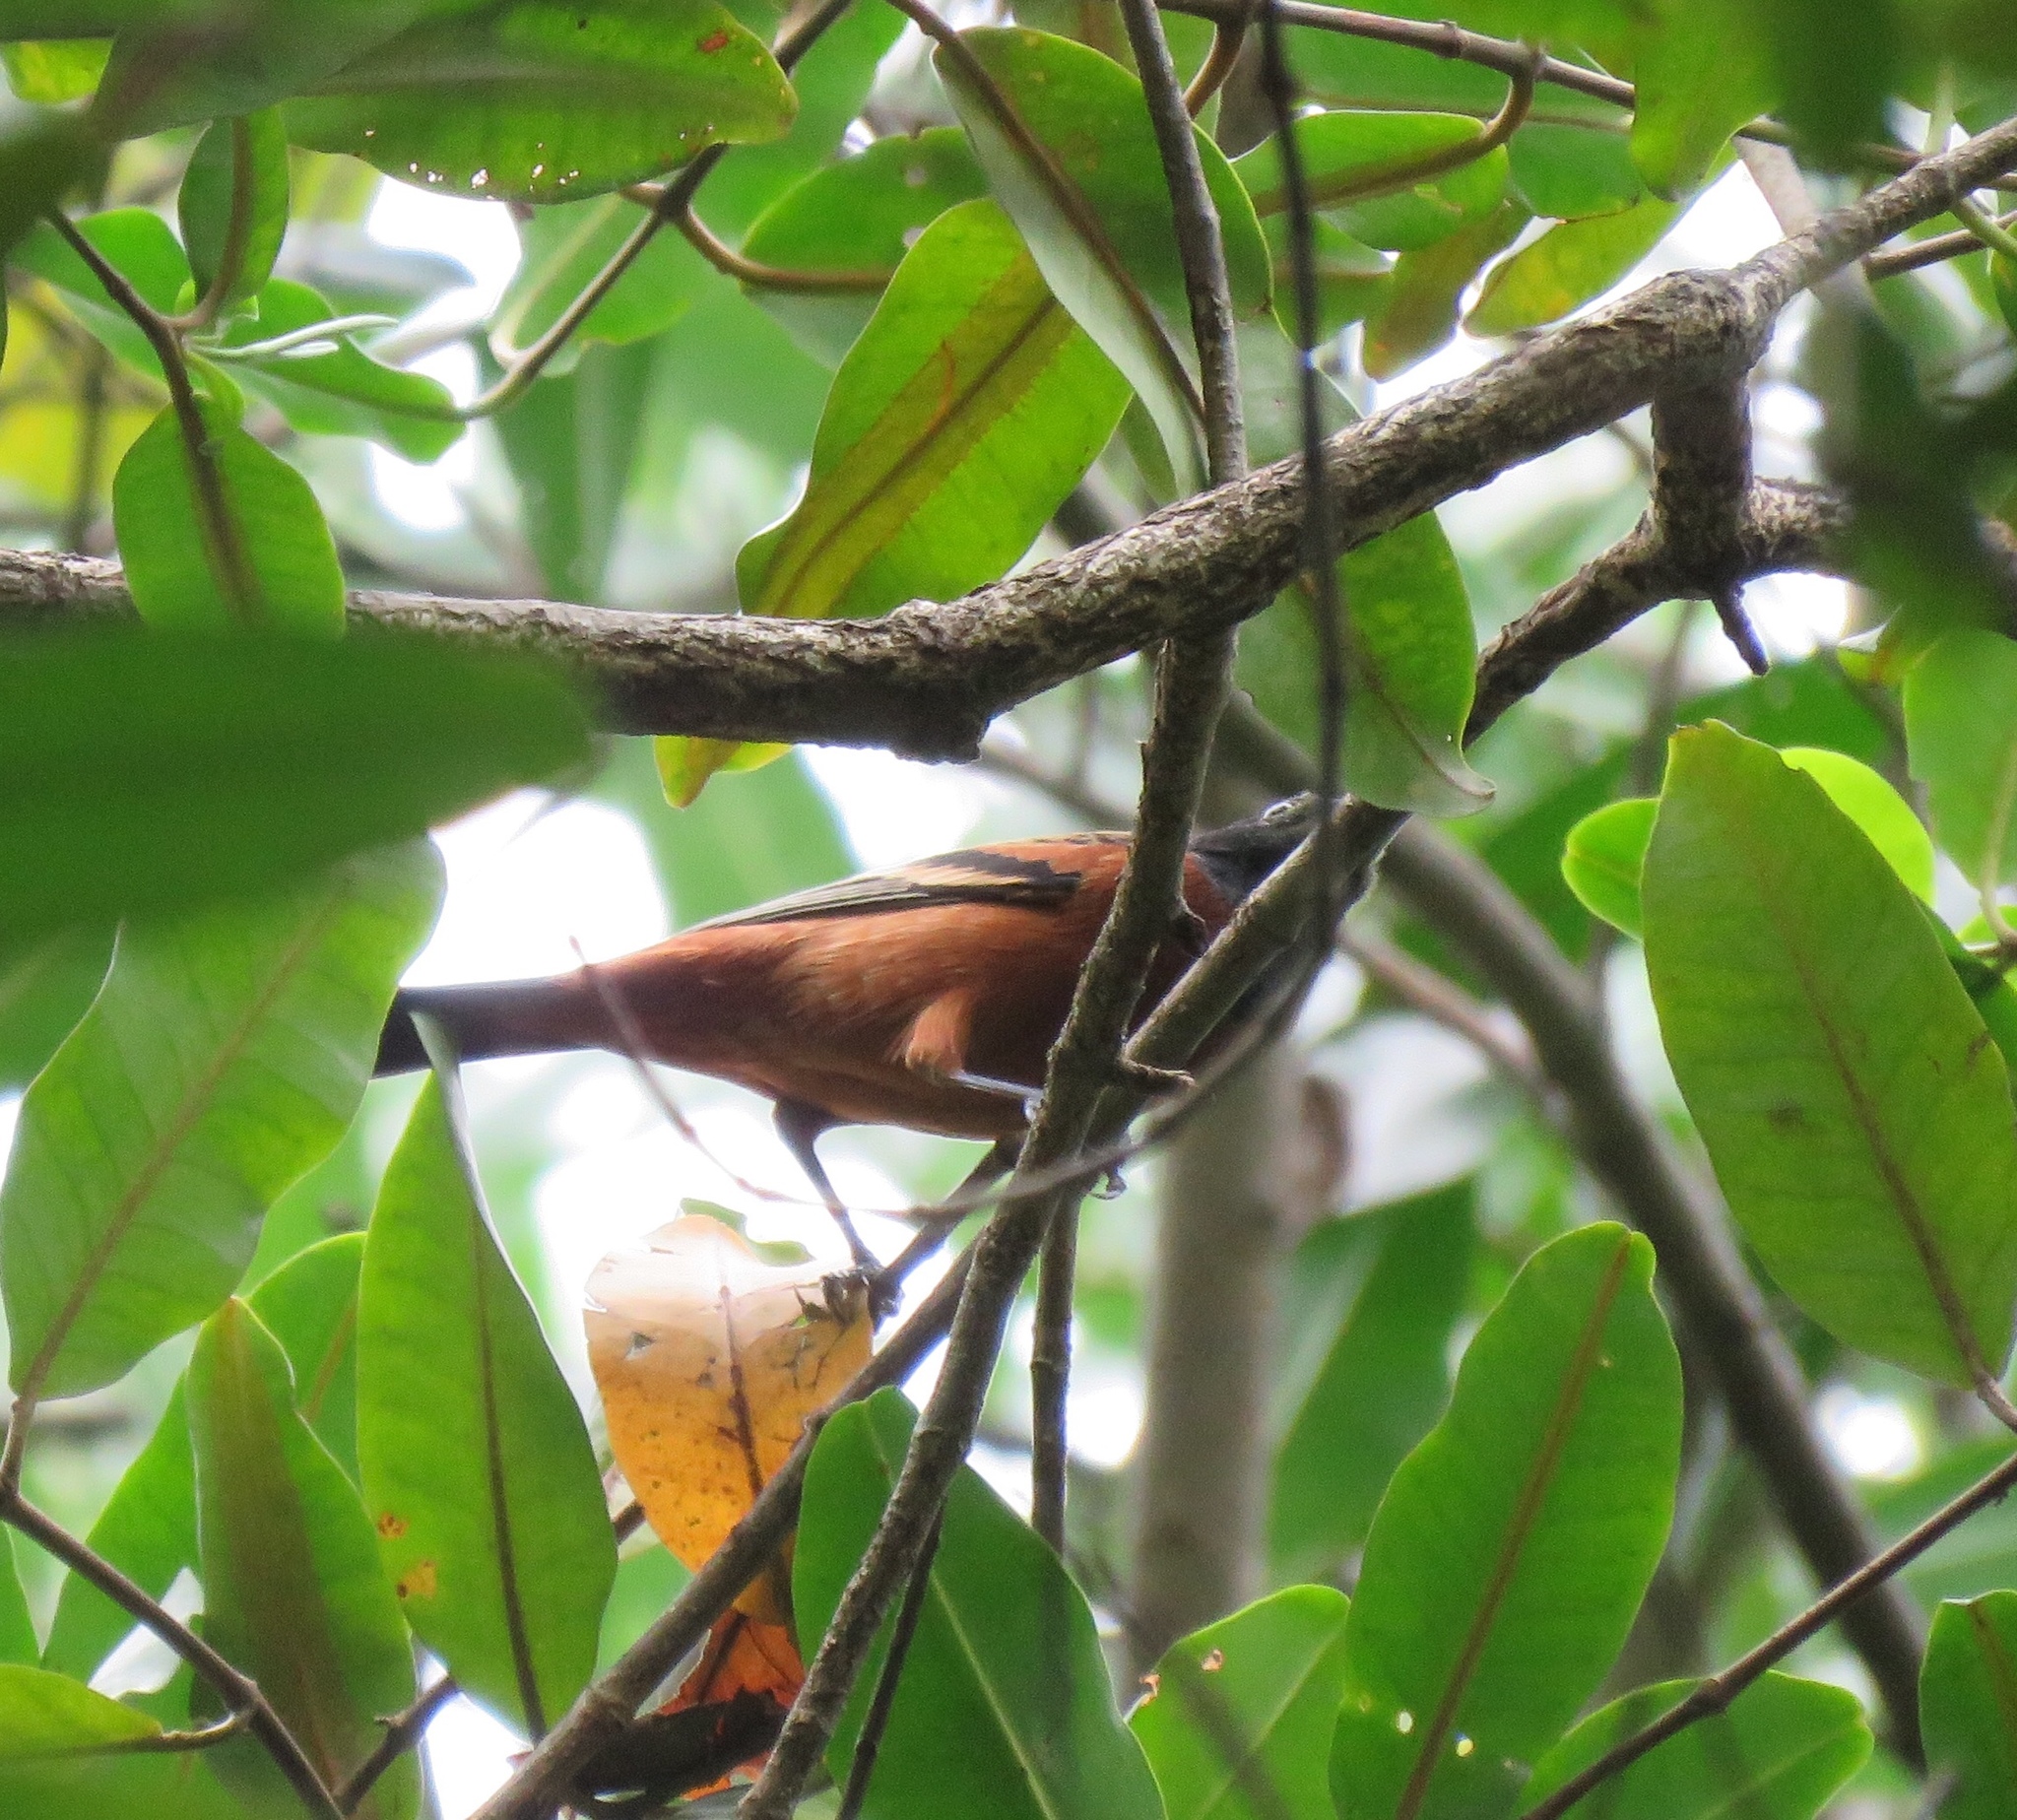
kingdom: Animalia
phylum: Chordata
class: Aves
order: Passeriformes
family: Icteridae
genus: Icterus
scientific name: Icterus spurius
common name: Orchard oriole
